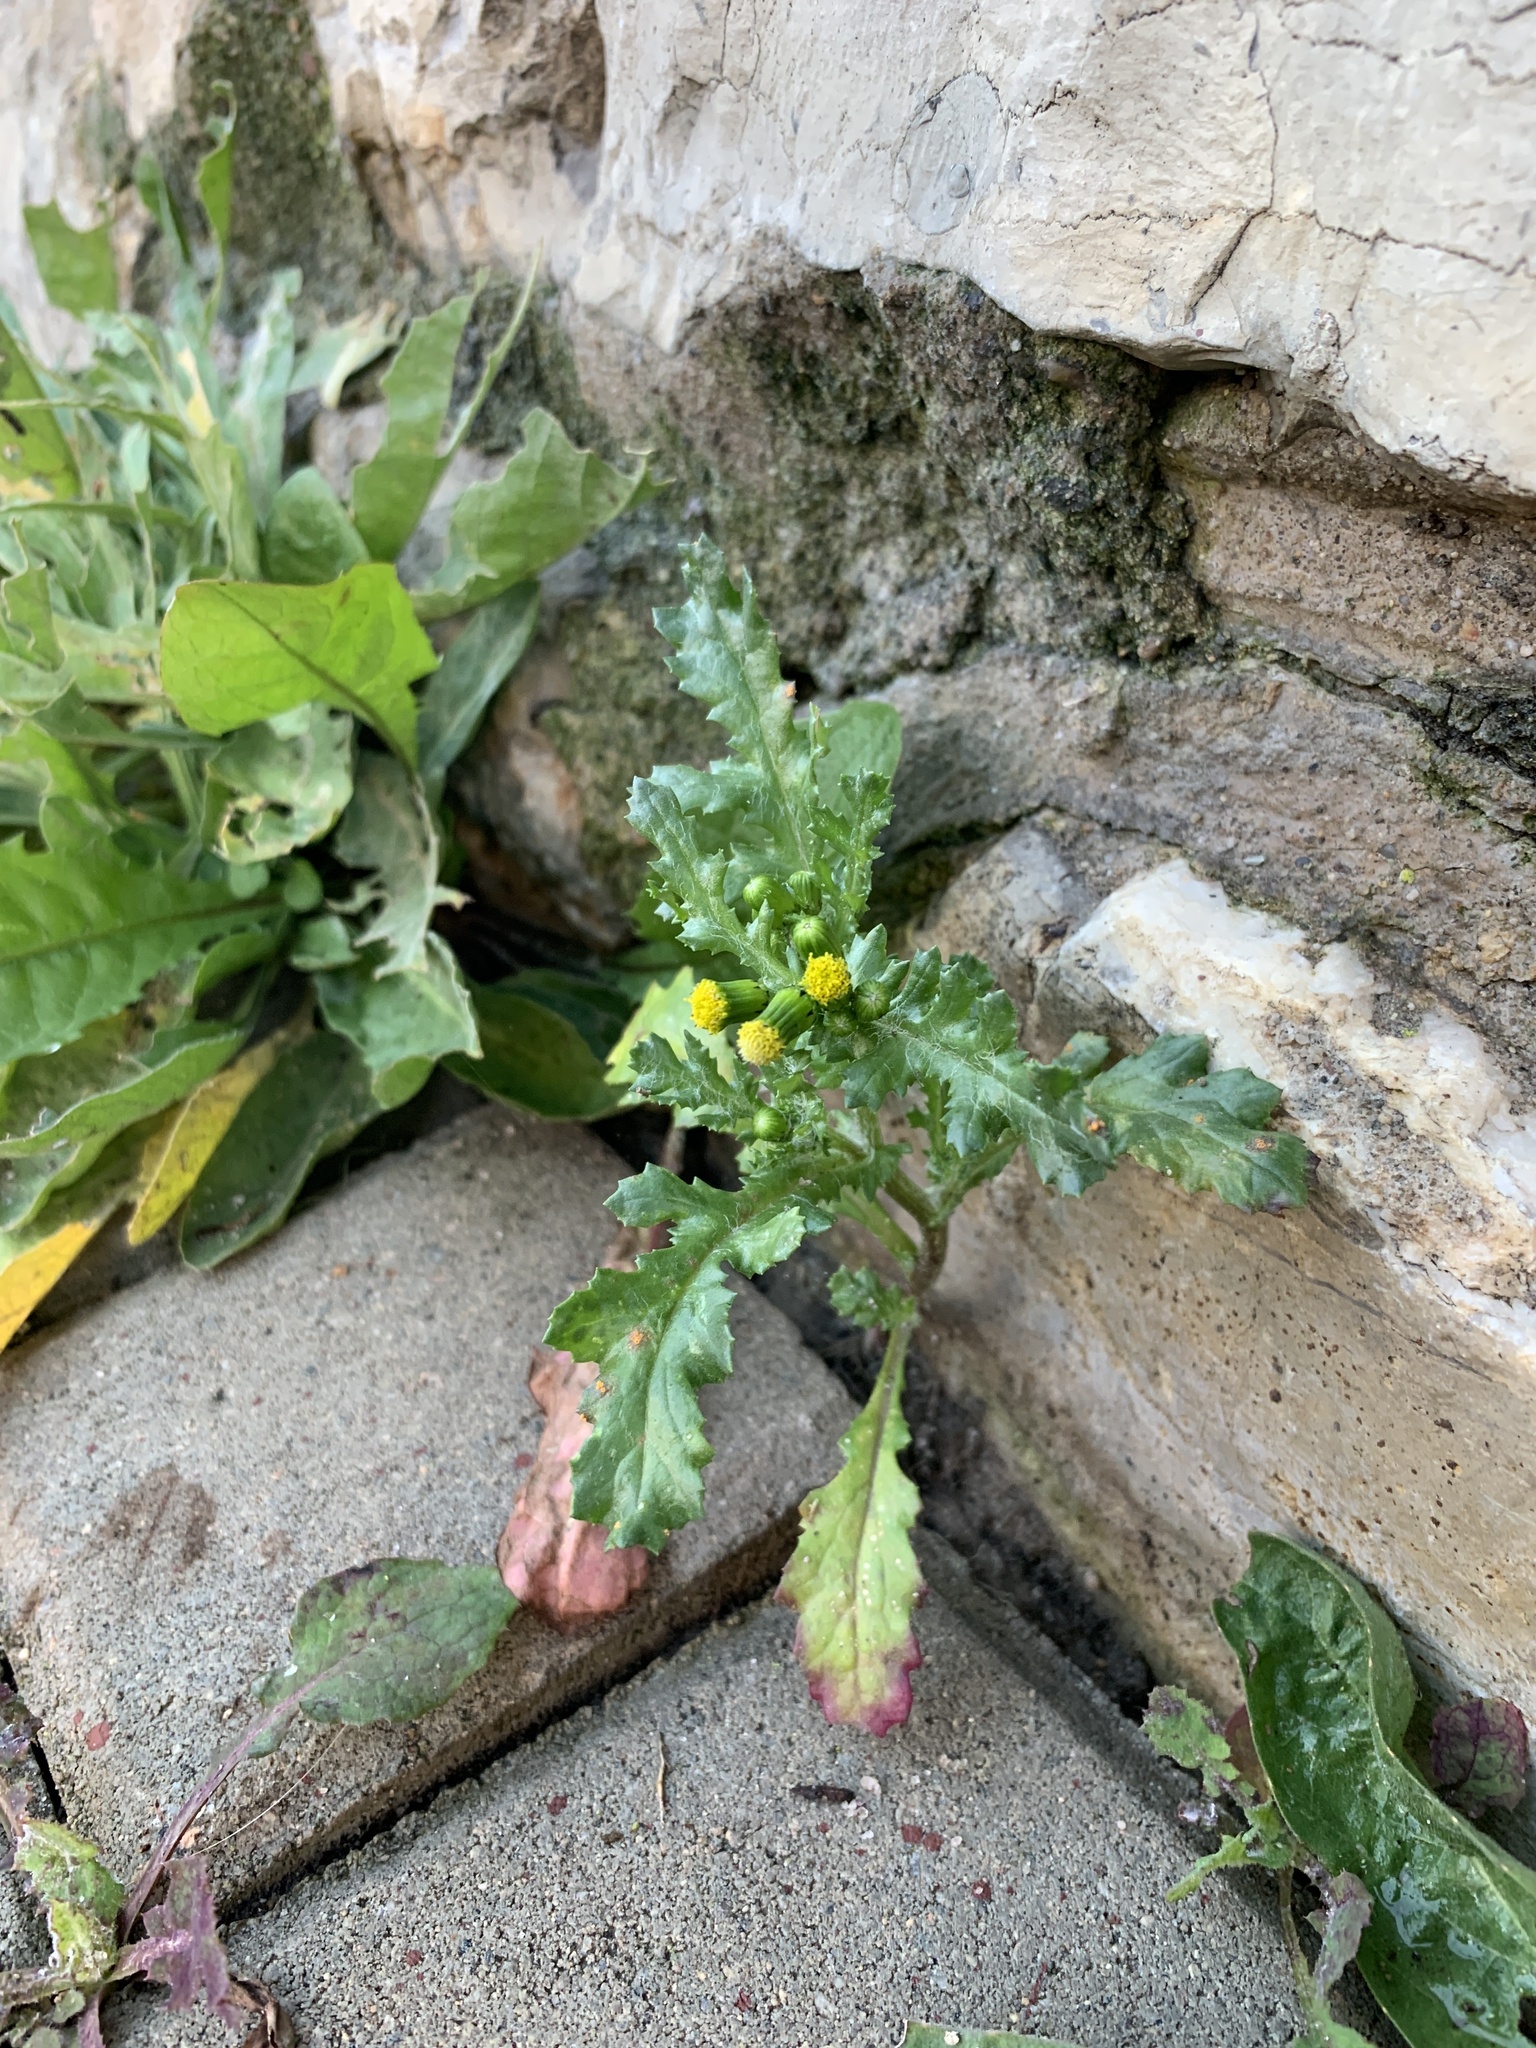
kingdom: Plantae
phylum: Tracheophyta
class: Magnoliopsida
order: Asterales
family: Asteraceae
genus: Senecio
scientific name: Senecio vulgaris
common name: Old-man-in-the-spring
